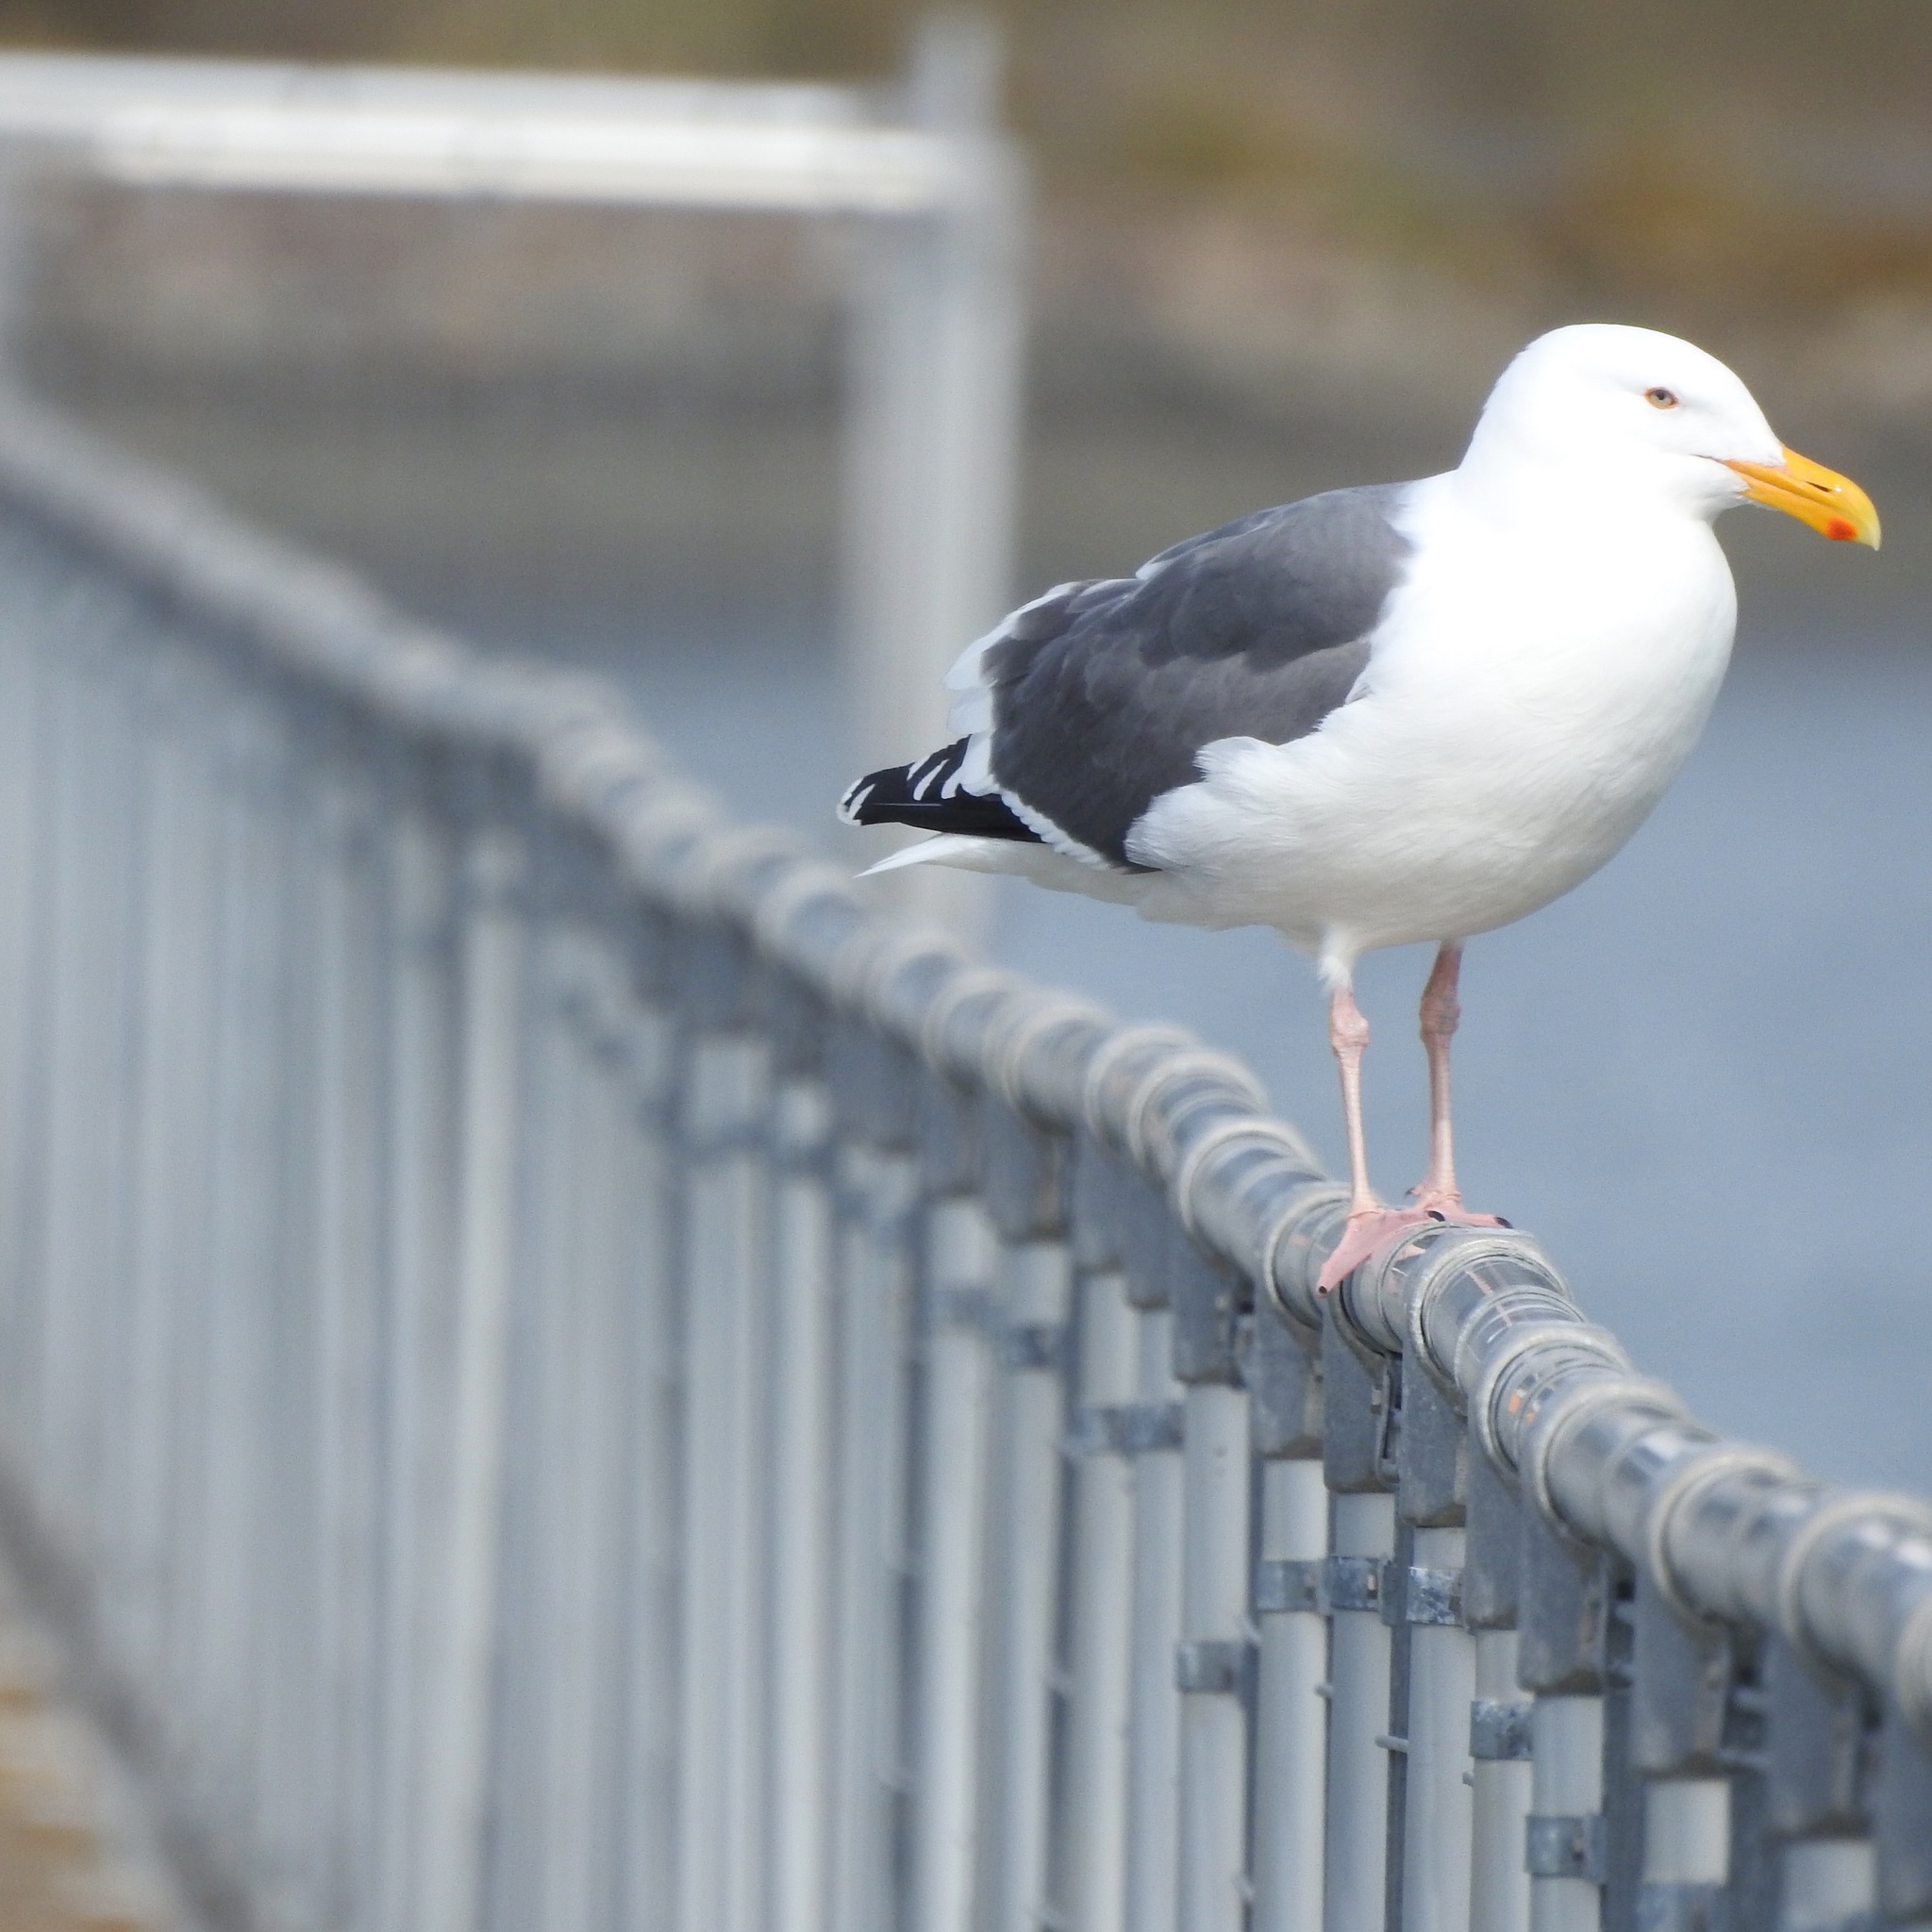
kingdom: Animalia
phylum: Chordata
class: Aves
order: Charadriiformes
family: Laridae
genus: Larus
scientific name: Larus occidentalis
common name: Western gull
